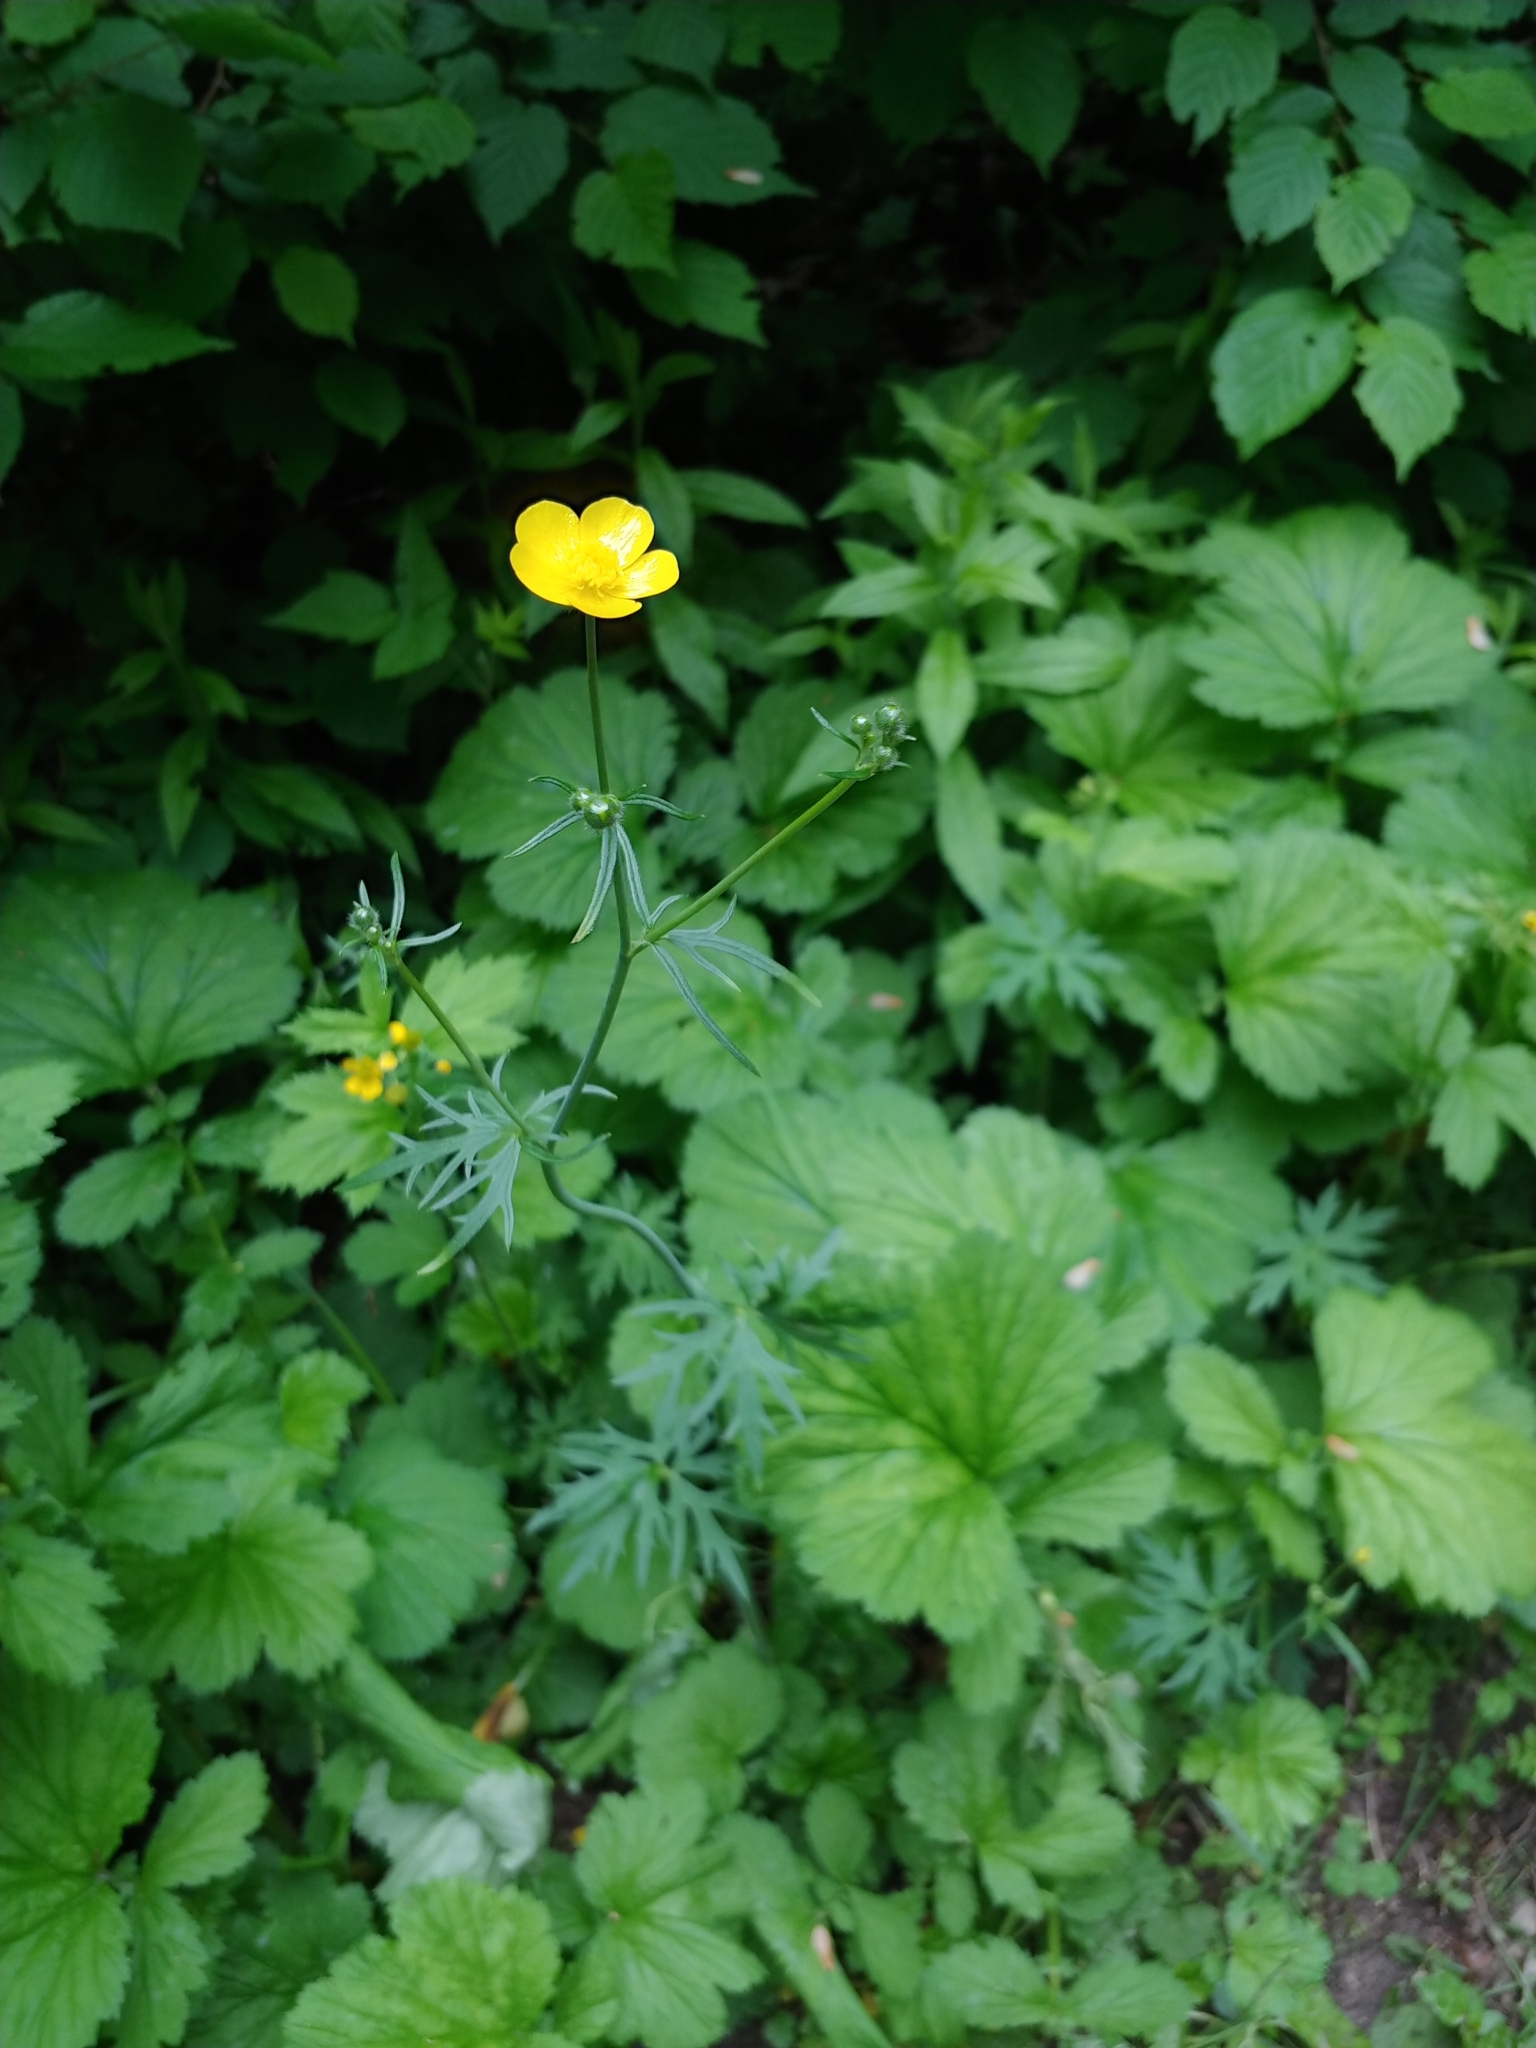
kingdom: Plantae
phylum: Tracheophyta
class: Magnoliopsida
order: Ranunculales
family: Ranunculaceae
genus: Ranunculus
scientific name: Ranunculus acris
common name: Meadow buttercup
